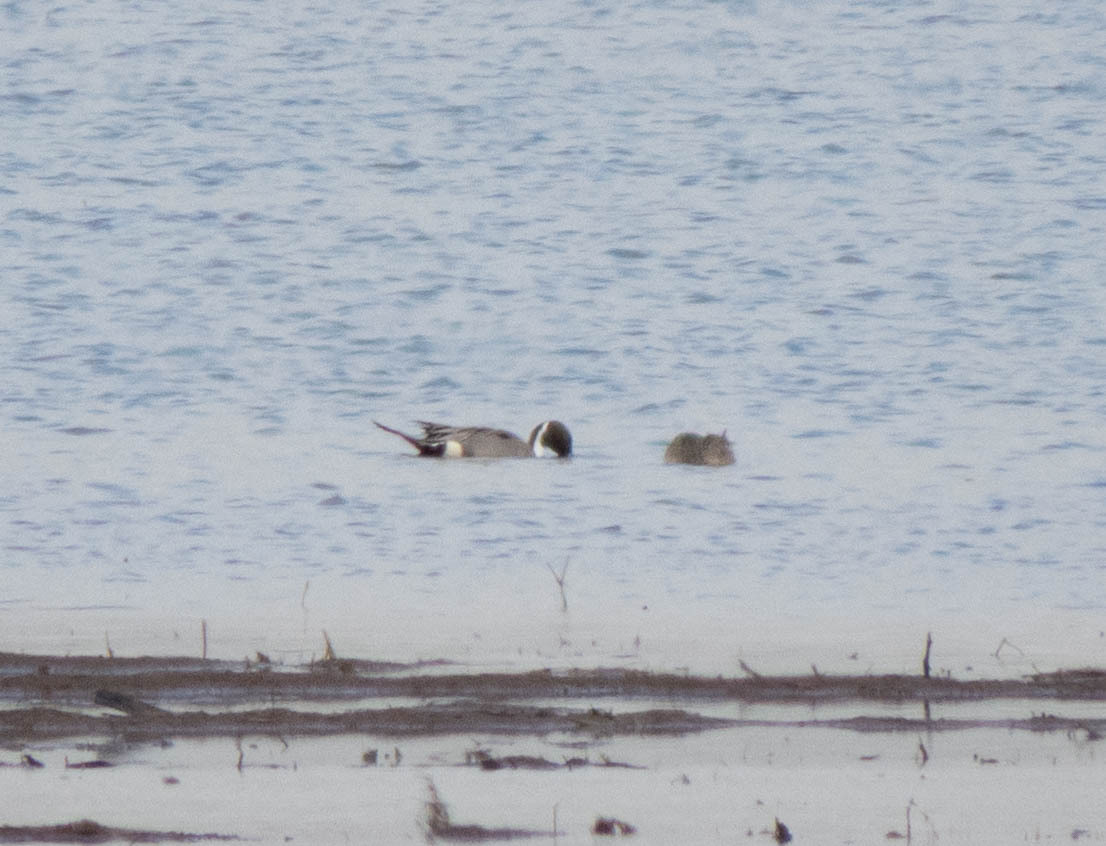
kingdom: Animalia
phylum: Chordata
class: Aves
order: Anseriformes
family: Anatidae
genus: Anas
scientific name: Anas acuta
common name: Northern pintail
